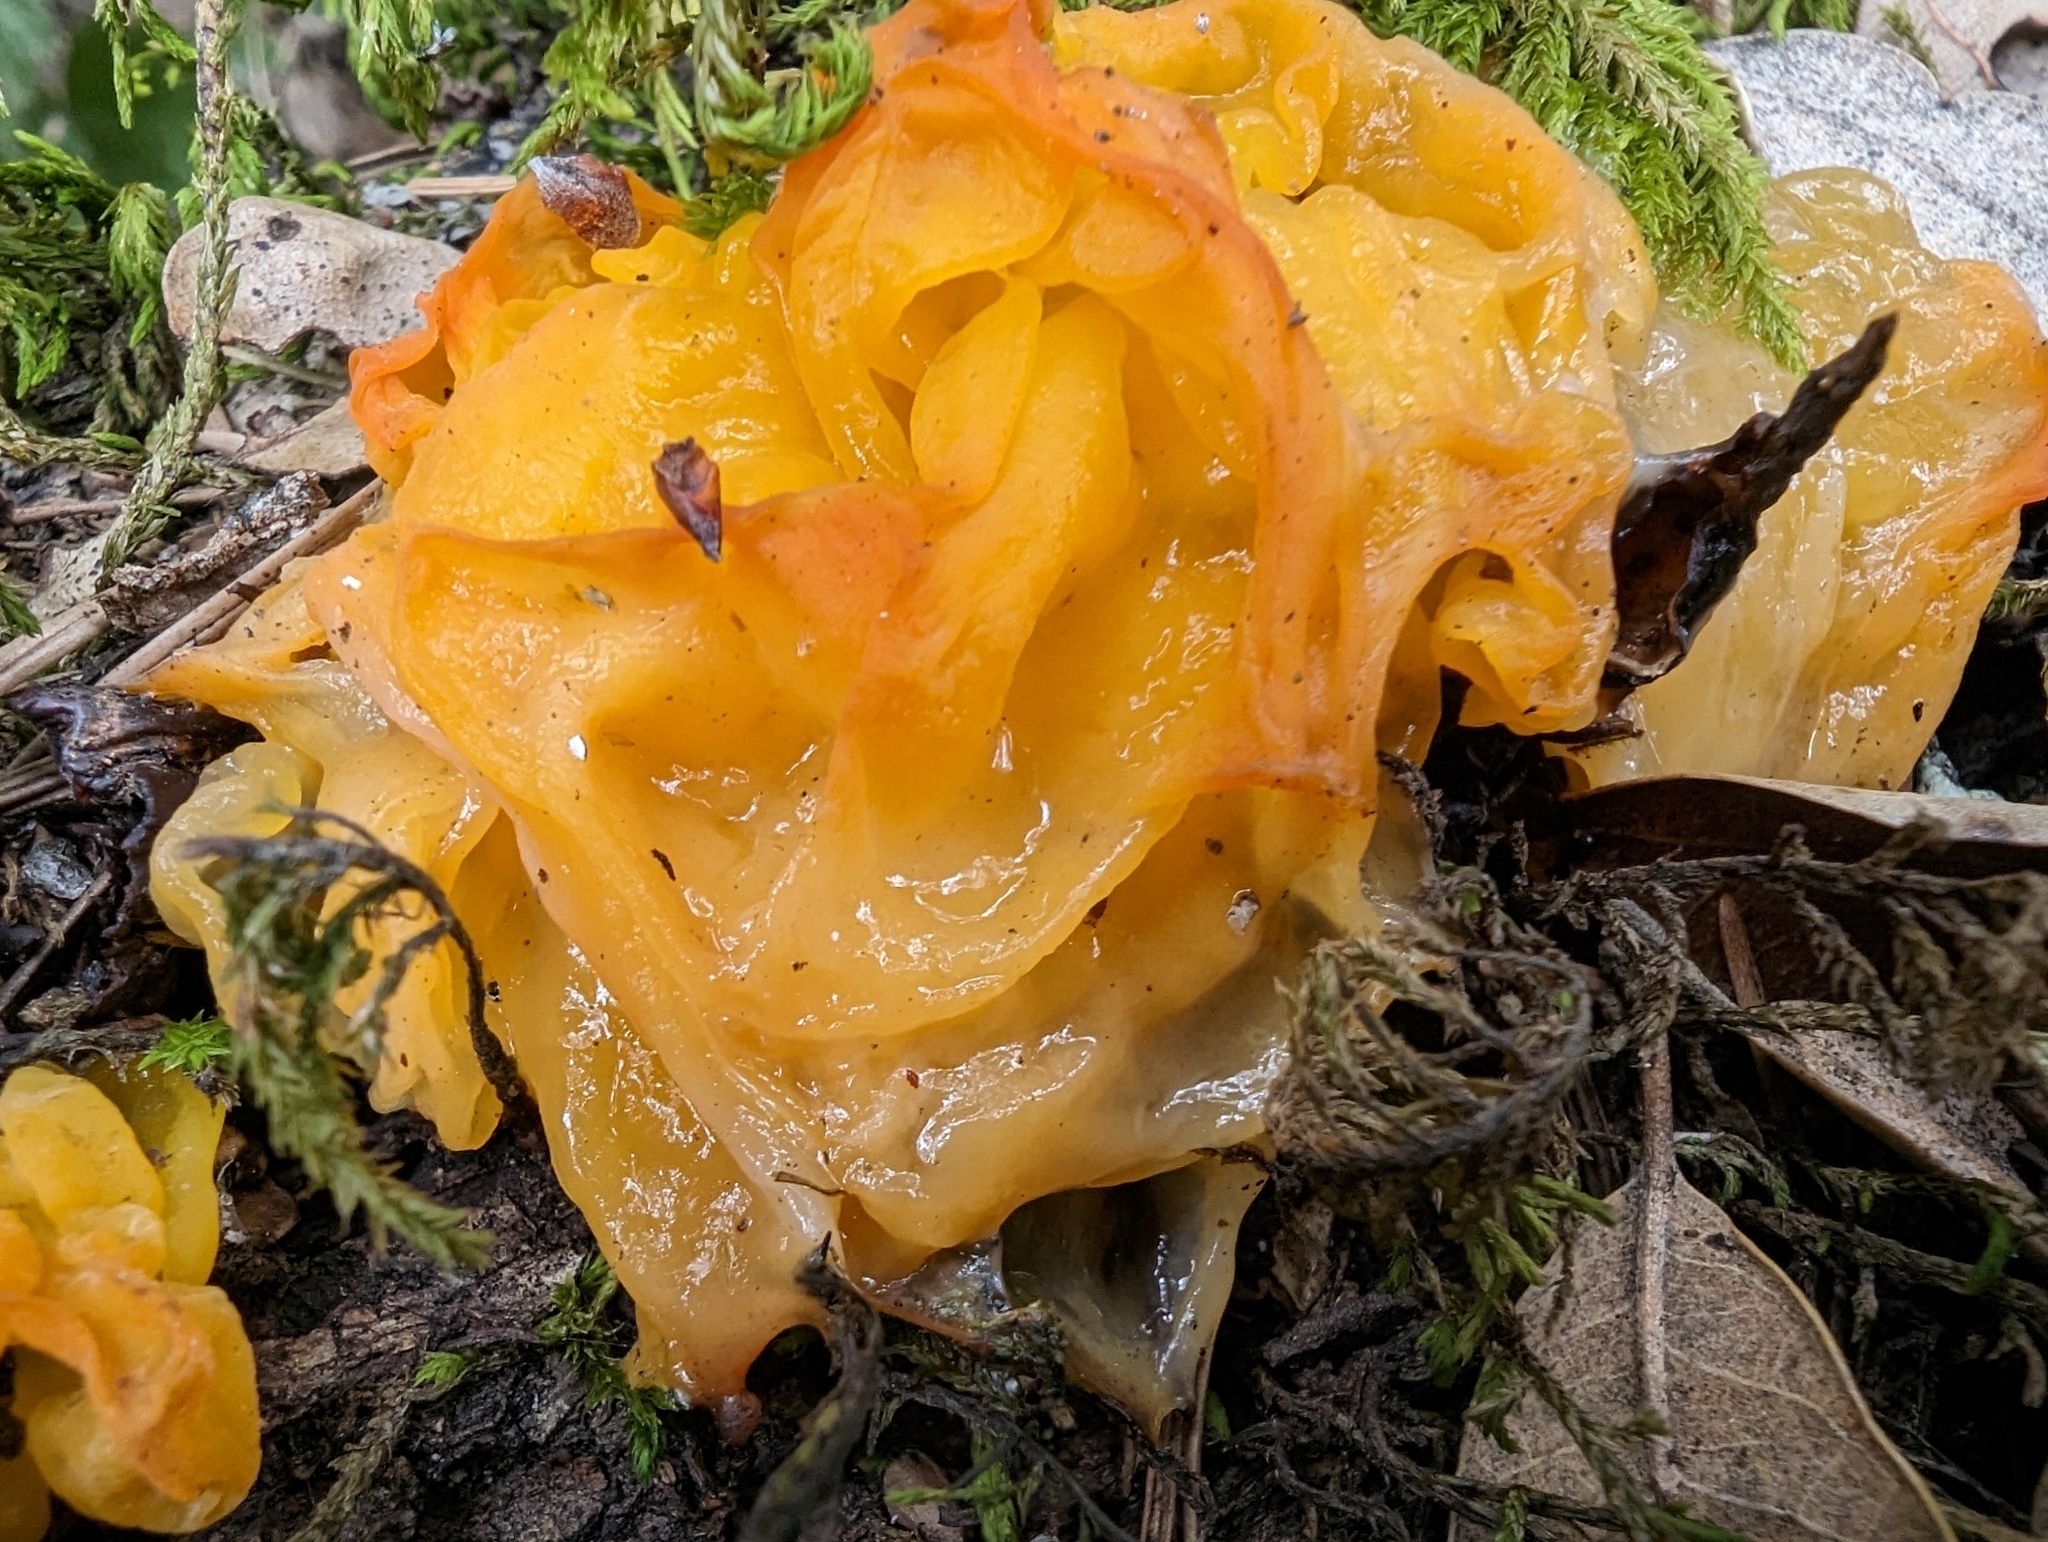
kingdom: Fungi
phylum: Basidiomycota
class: Tremellomycetes
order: Tremellales
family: Naemateliaceae
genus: Naematelia
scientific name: Naematelia aurantia
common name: Golden ear
